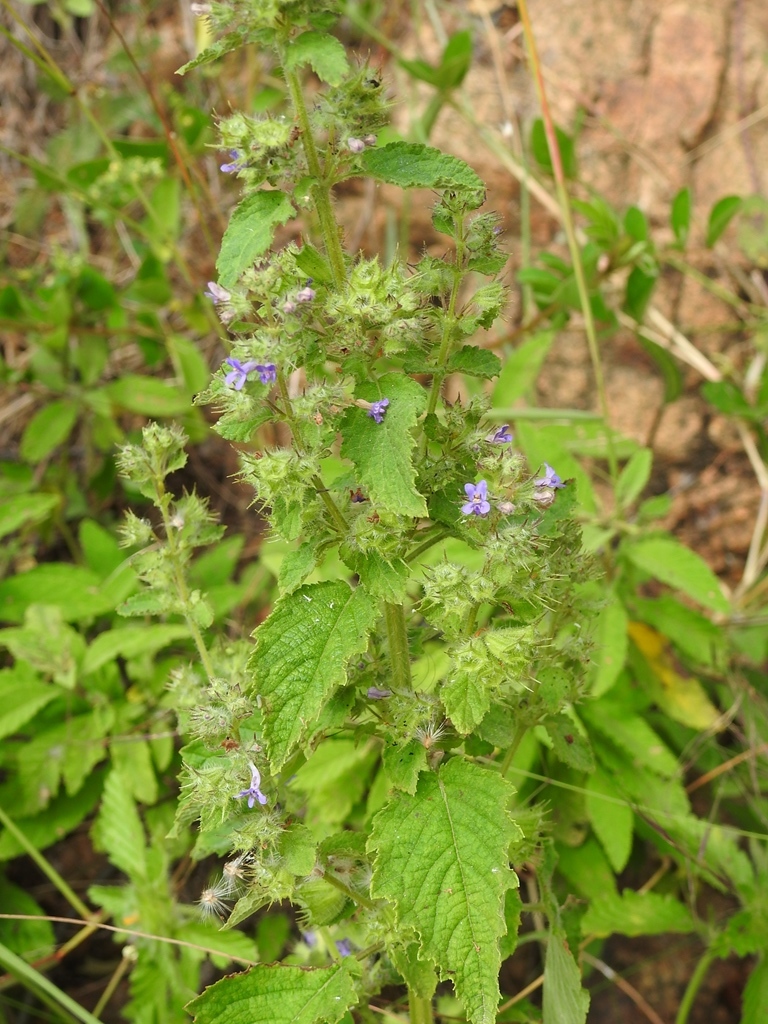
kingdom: Plantae
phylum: Tracheophyta
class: Magnoliopsida
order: Lamiales
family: Lamiaceae
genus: Mesosphaerum
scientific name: Mesosphaerum suaveolens
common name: Pignut
